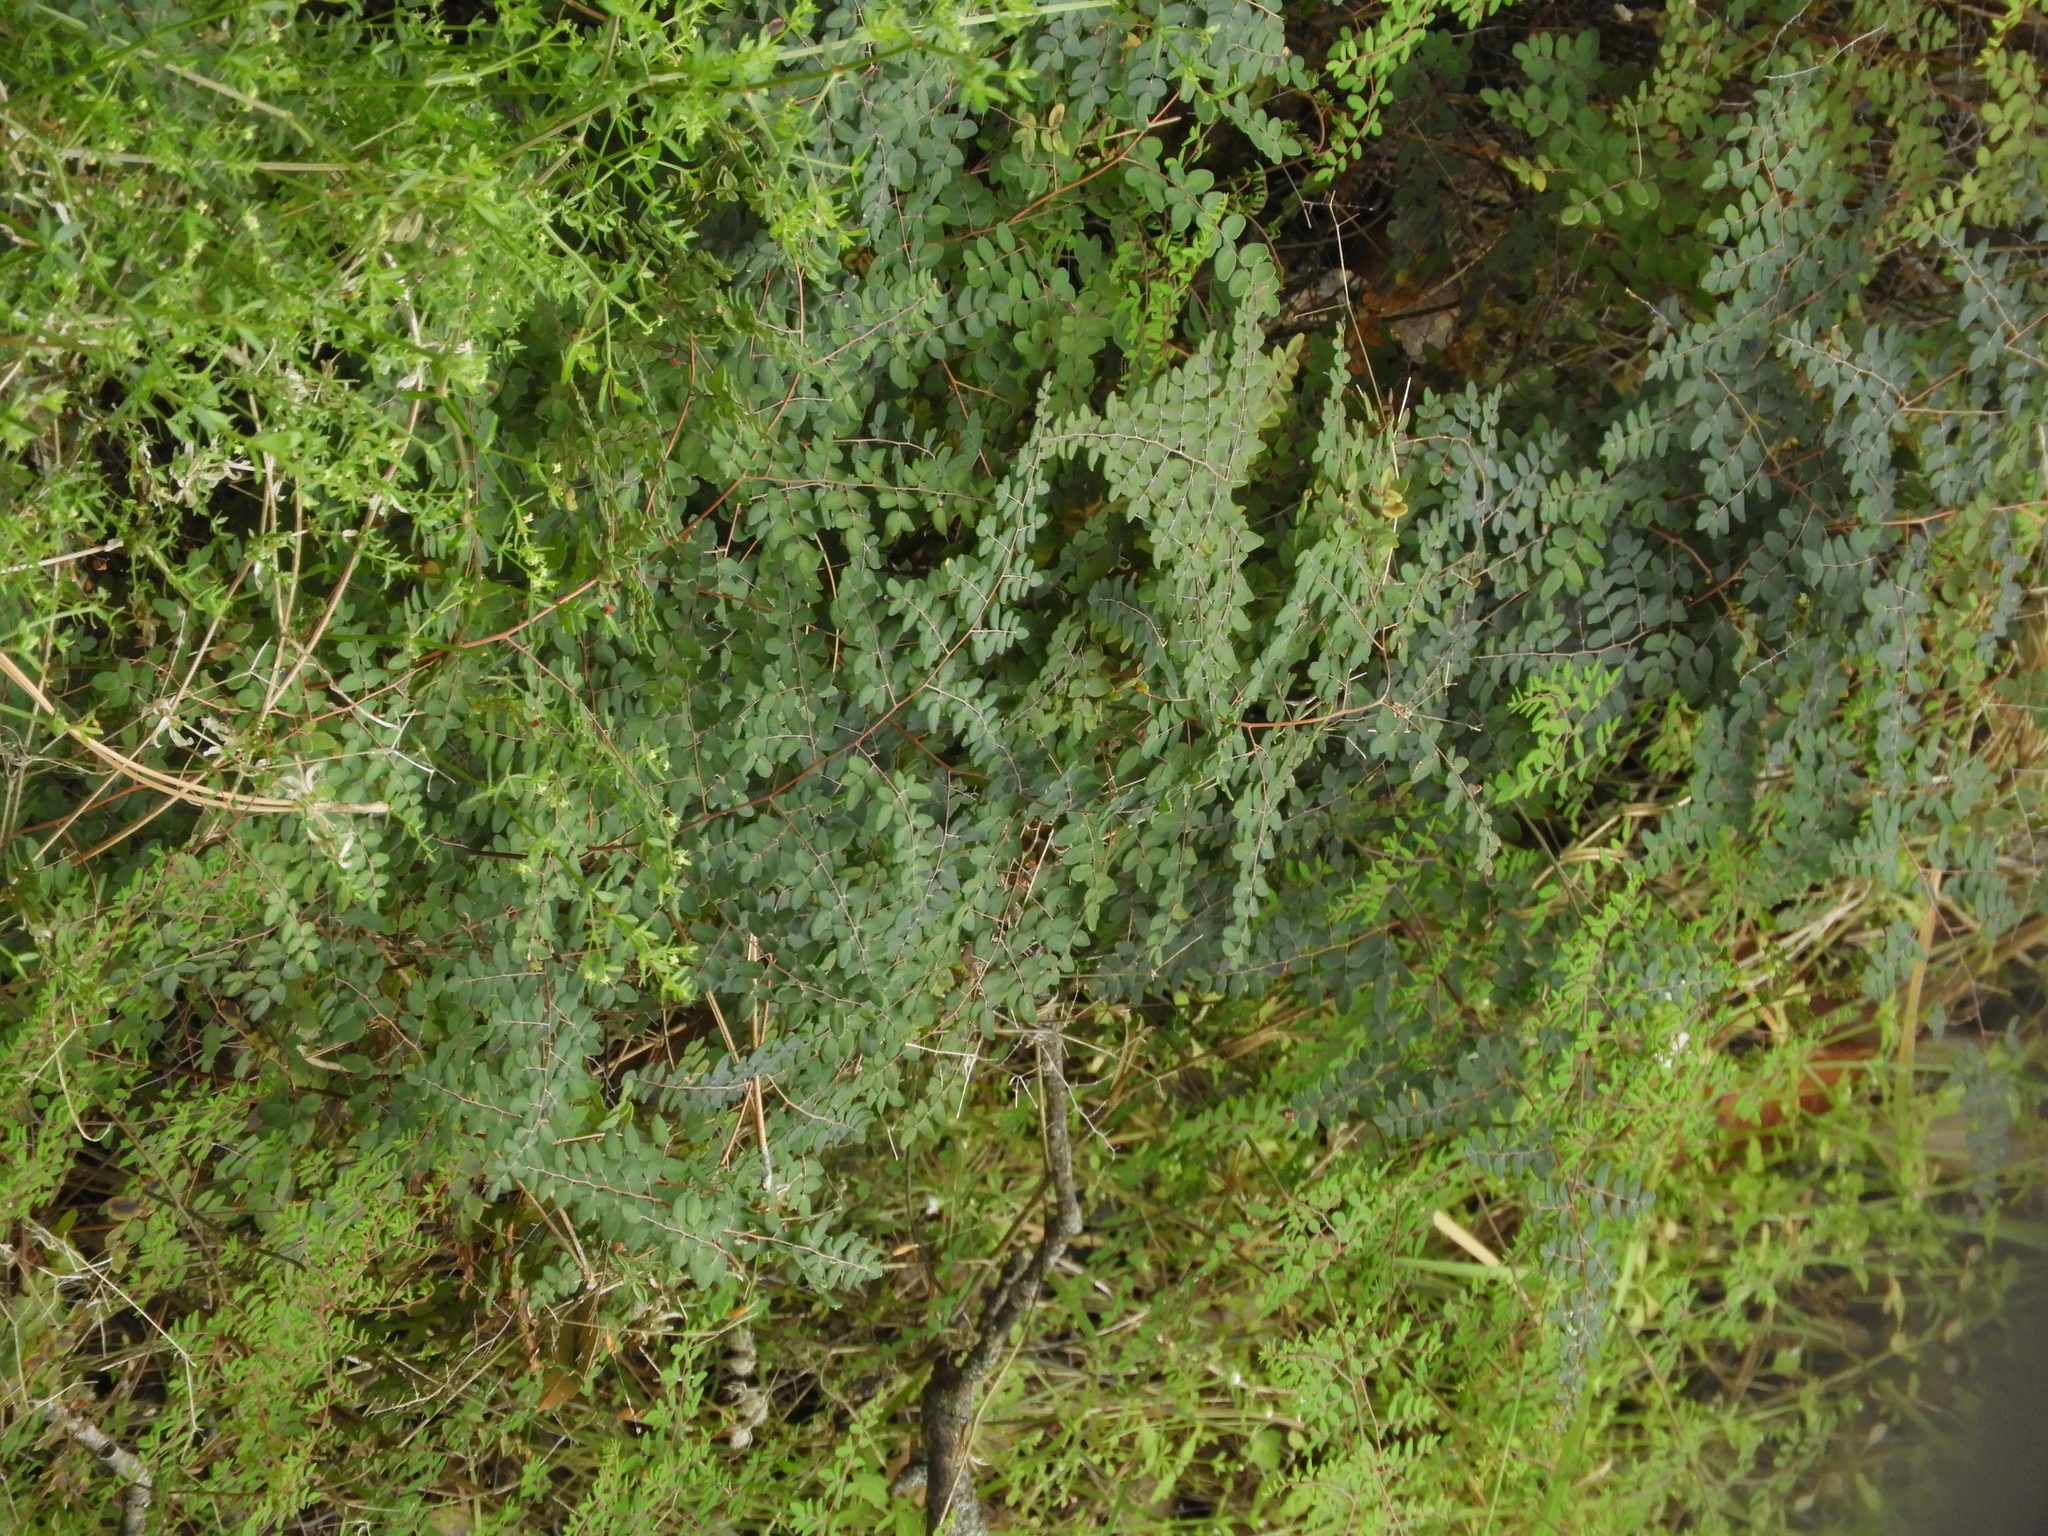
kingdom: Plantae
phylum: Tracheophyta
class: Polypodiopsida
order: Polypodiales
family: Pteridaceae
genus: Pellaea
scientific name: Pellaea andromedifolia
